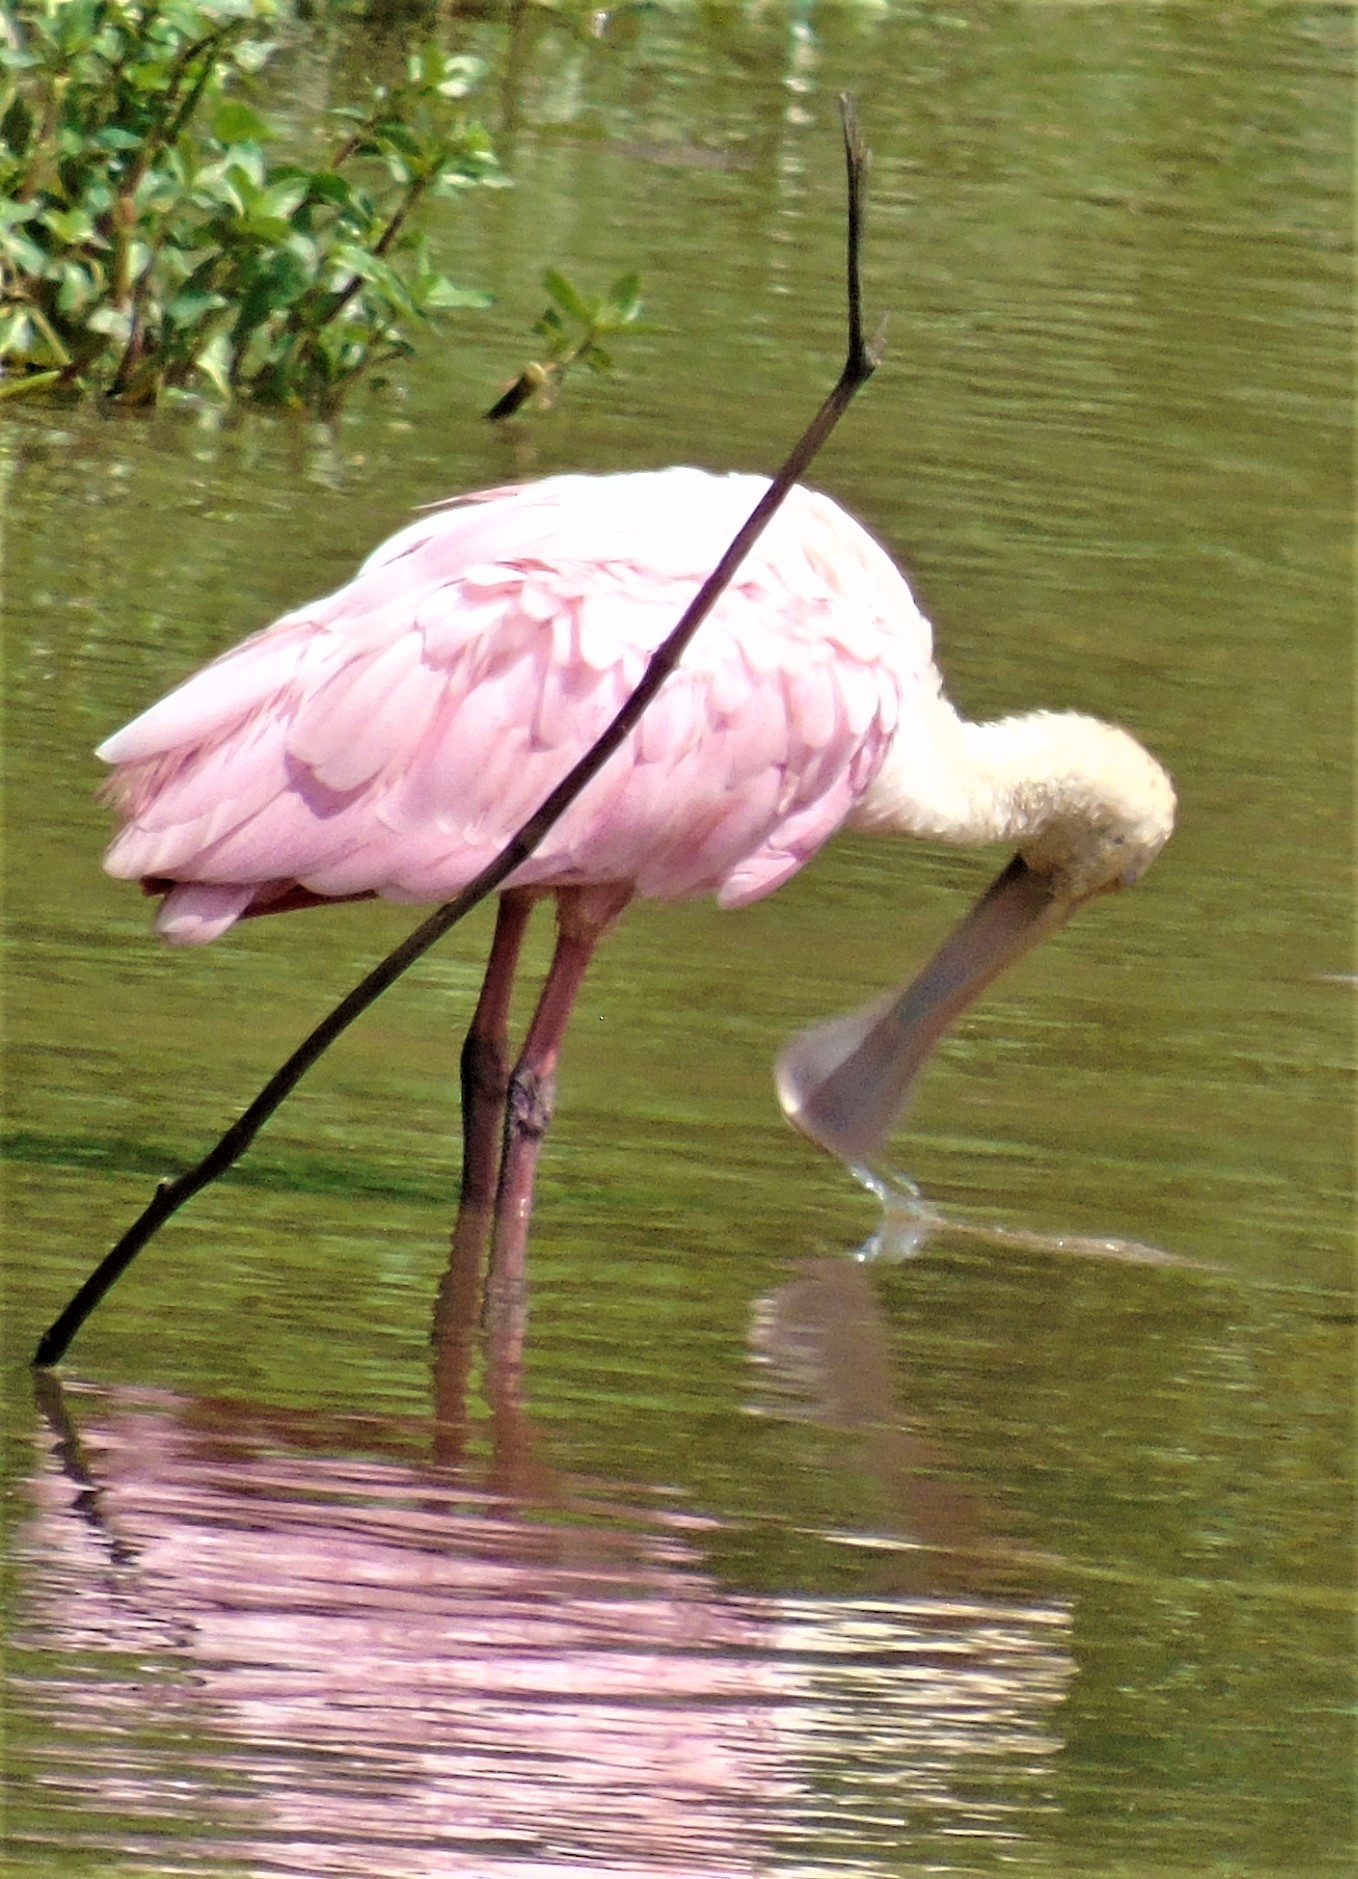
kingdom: Animalia
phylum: Chordata
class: Aves
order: Pelecaniformes
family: Threskiornithidae
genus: Platalea
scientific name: Platalea ajaja
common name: Roseate spoonbill
